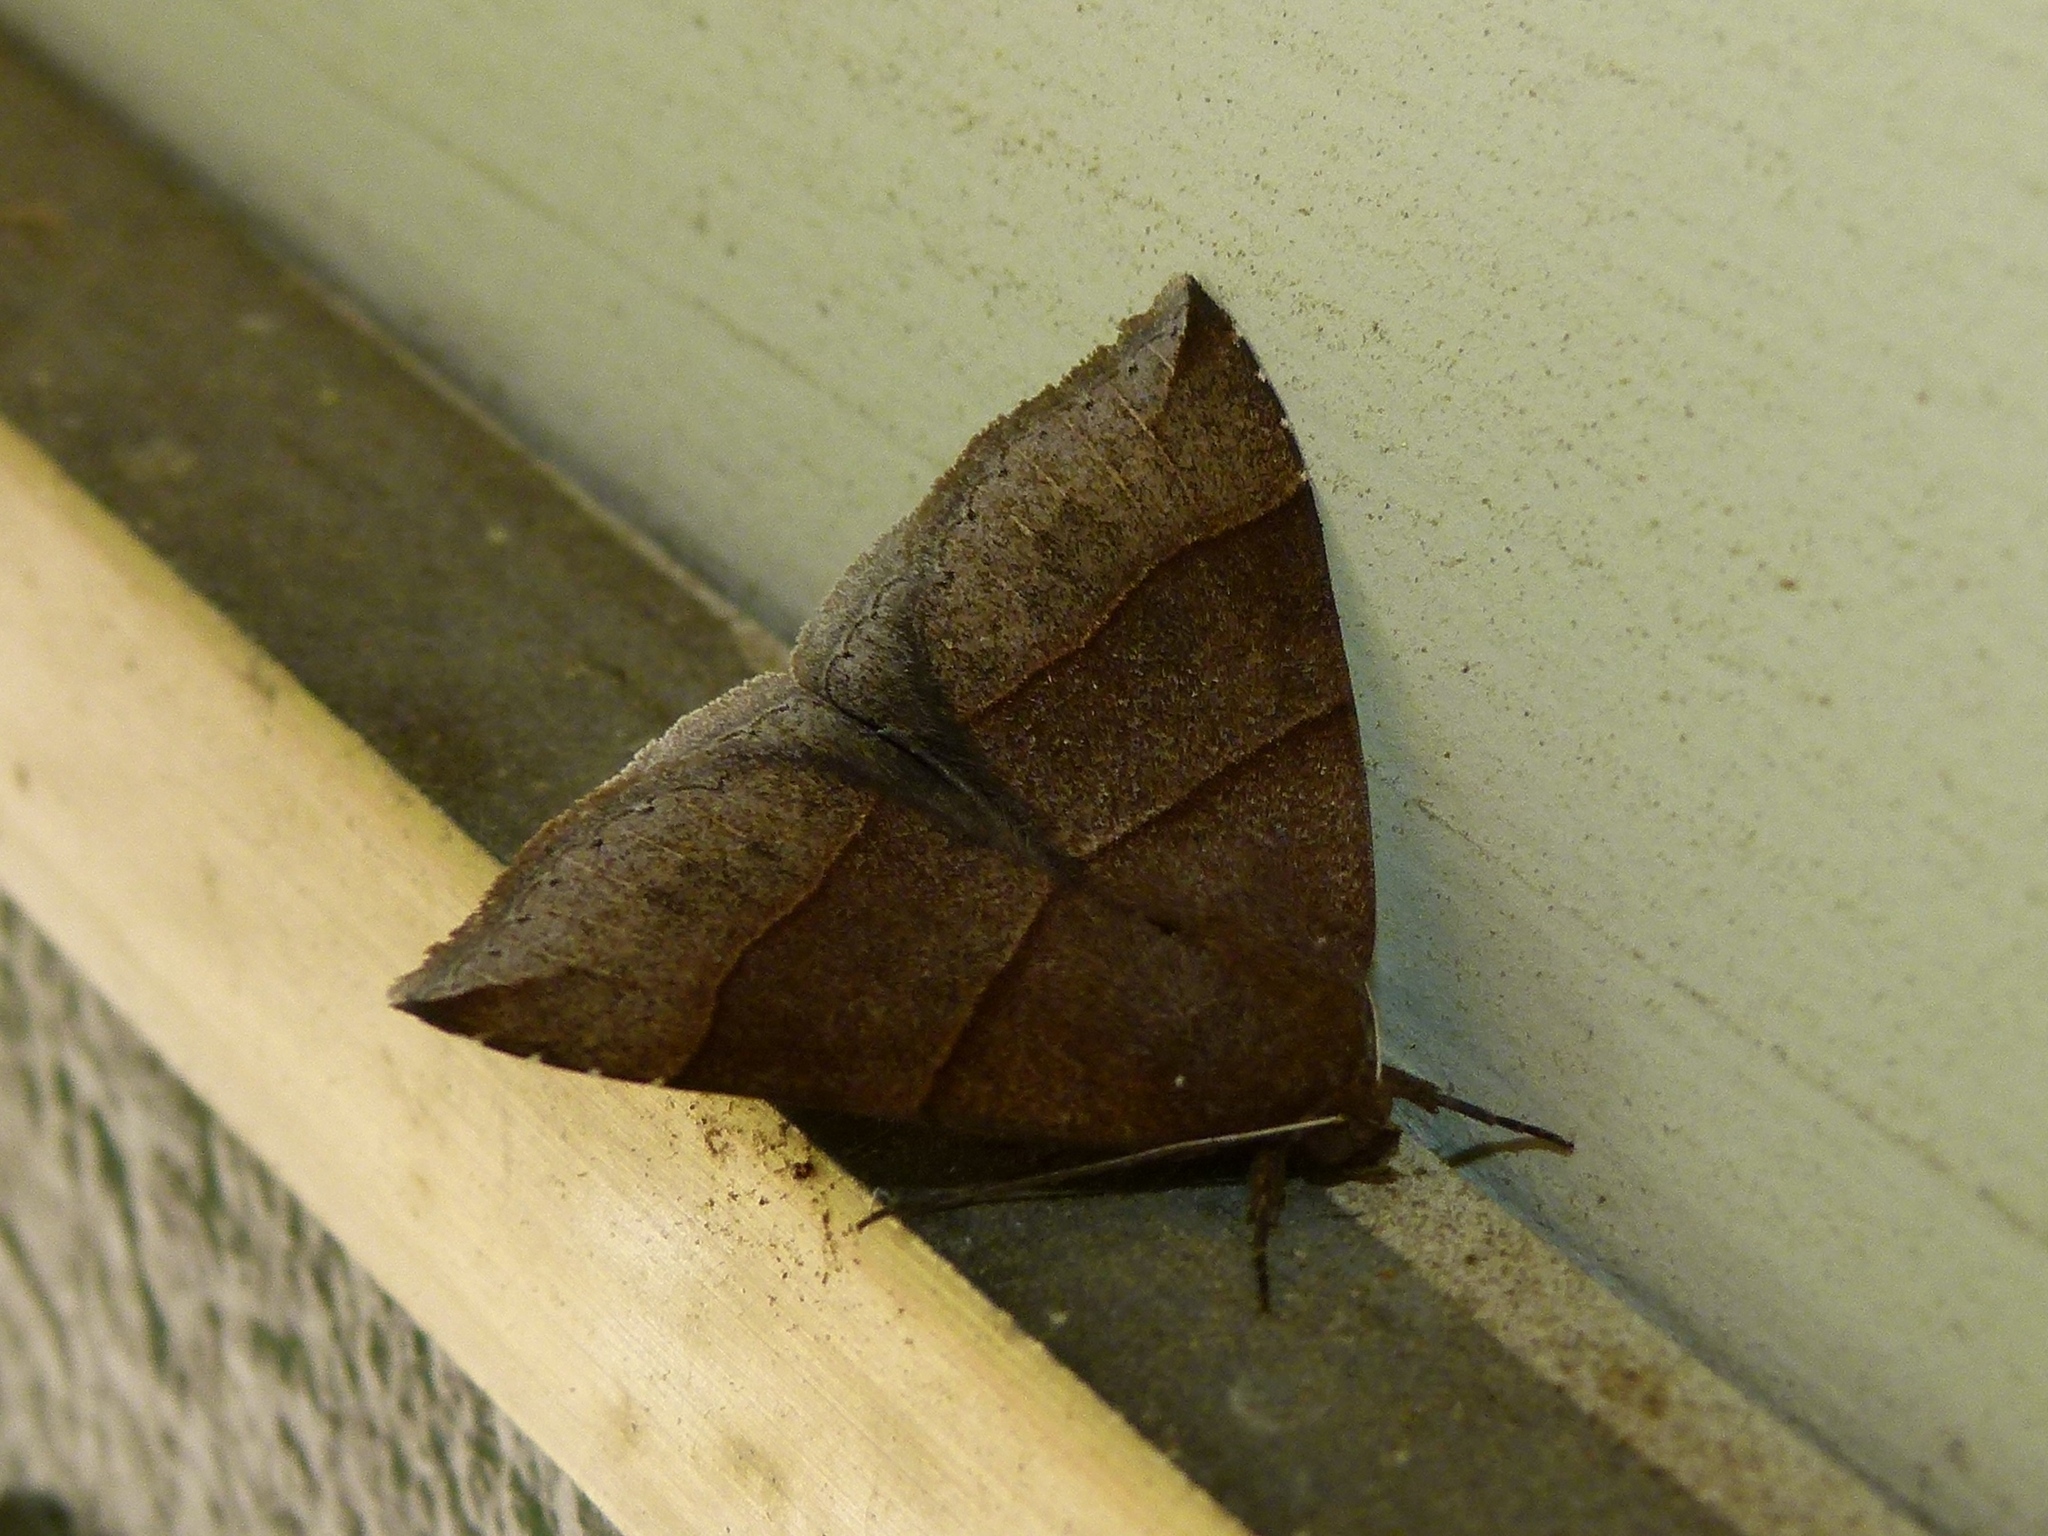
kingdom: Animalia
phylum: Arthropoda
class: Insecta
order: Lepidoptera
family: Erebidae
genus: Parallelia
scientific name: Parallelia bistriaris
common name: Maple looper moth
